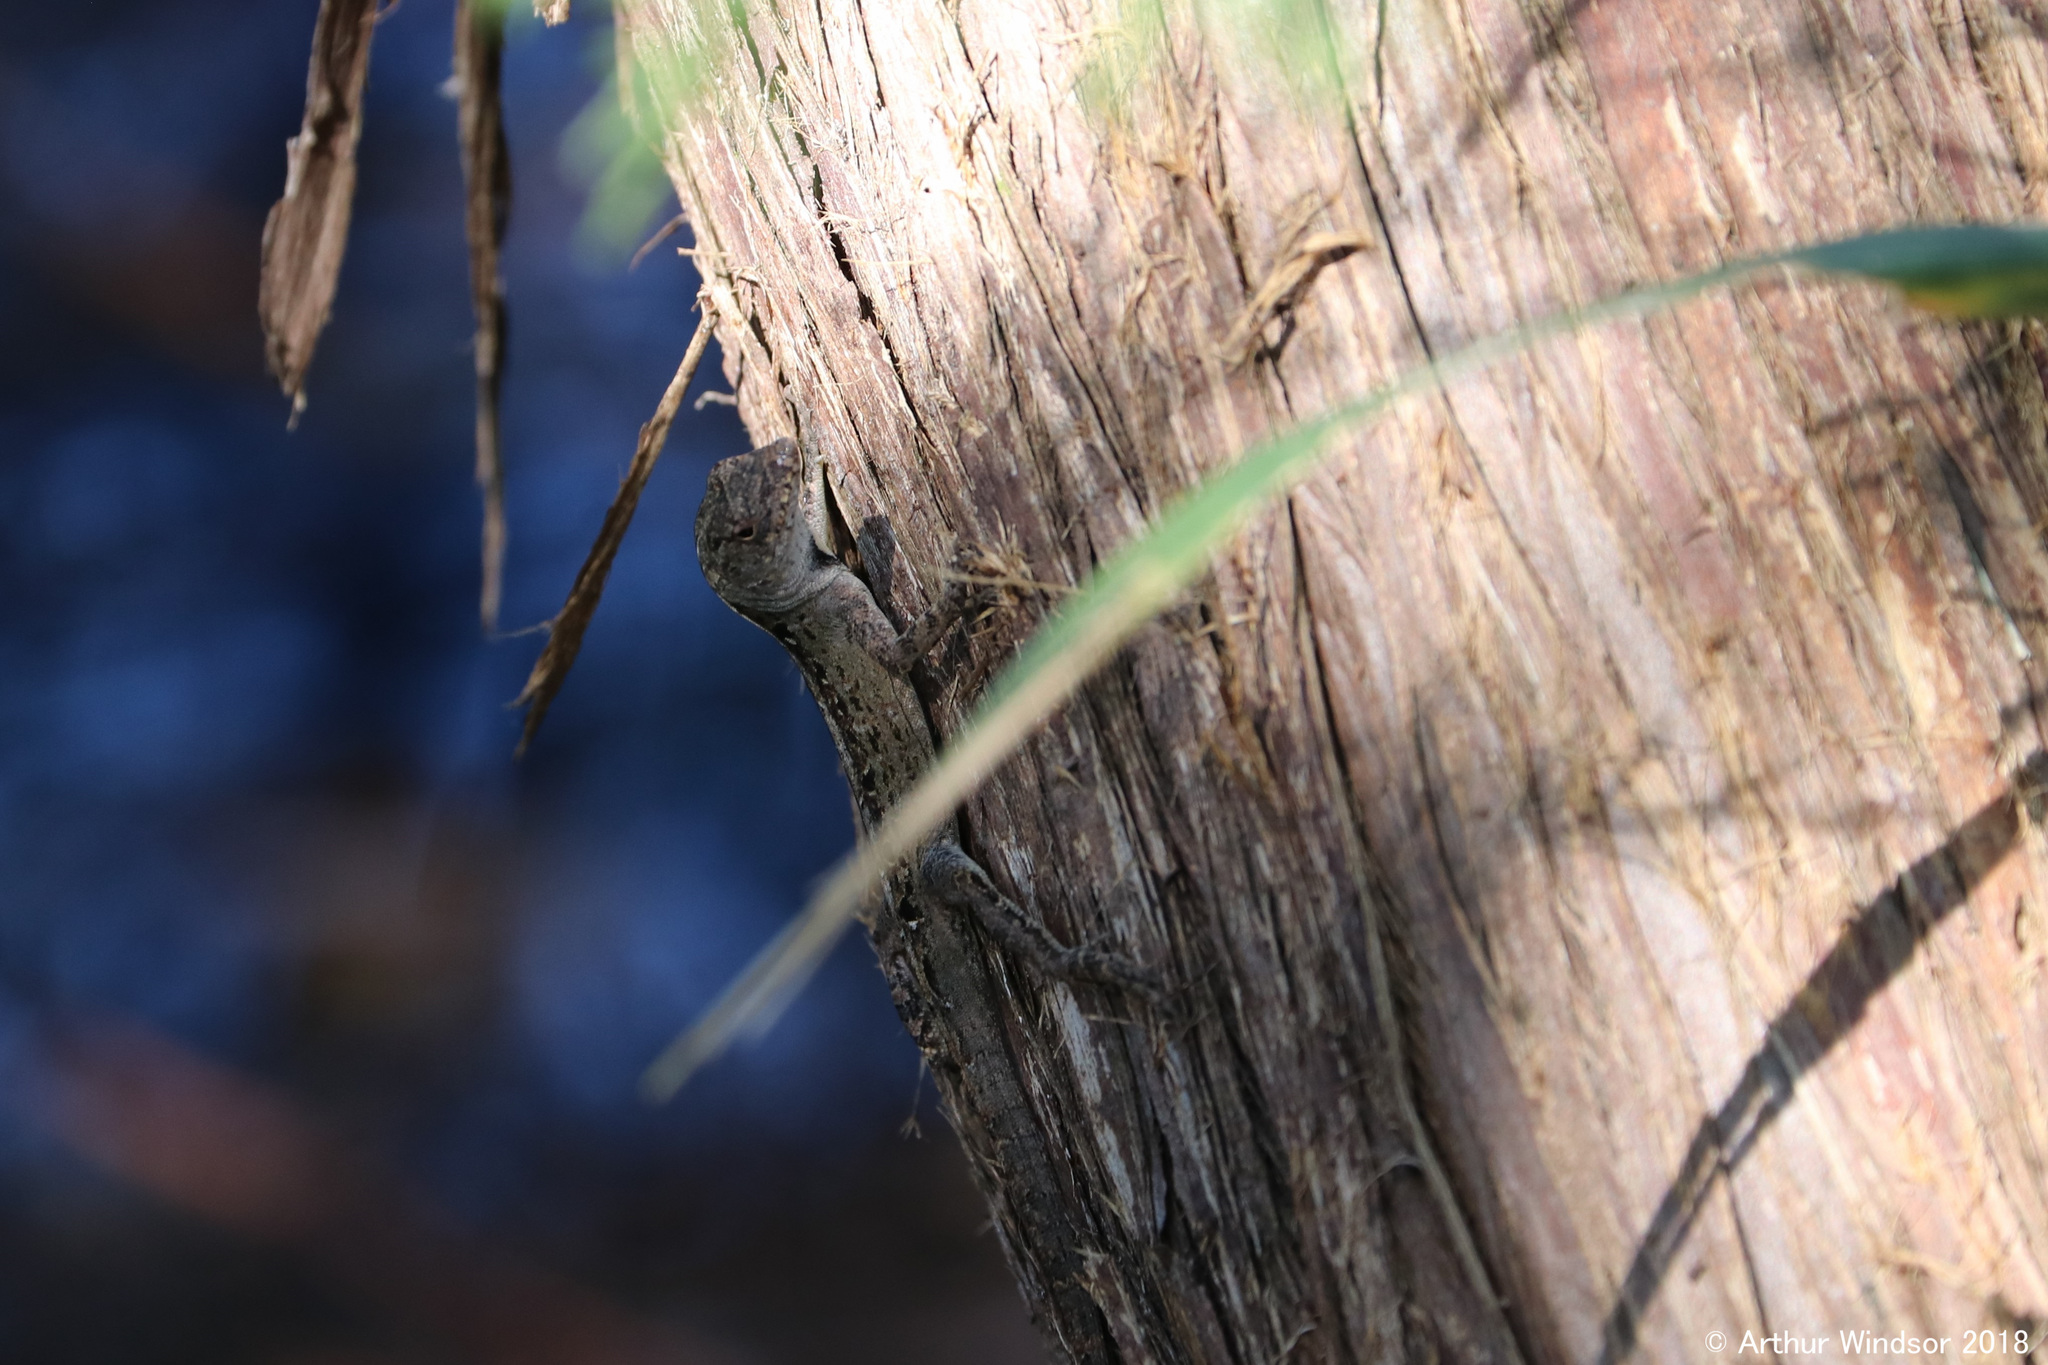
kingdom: Animalia
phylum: Chordata
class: Squamata
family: Dactyloidae
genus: Anolis
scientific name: Anolis sagrei
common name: Brown anole
